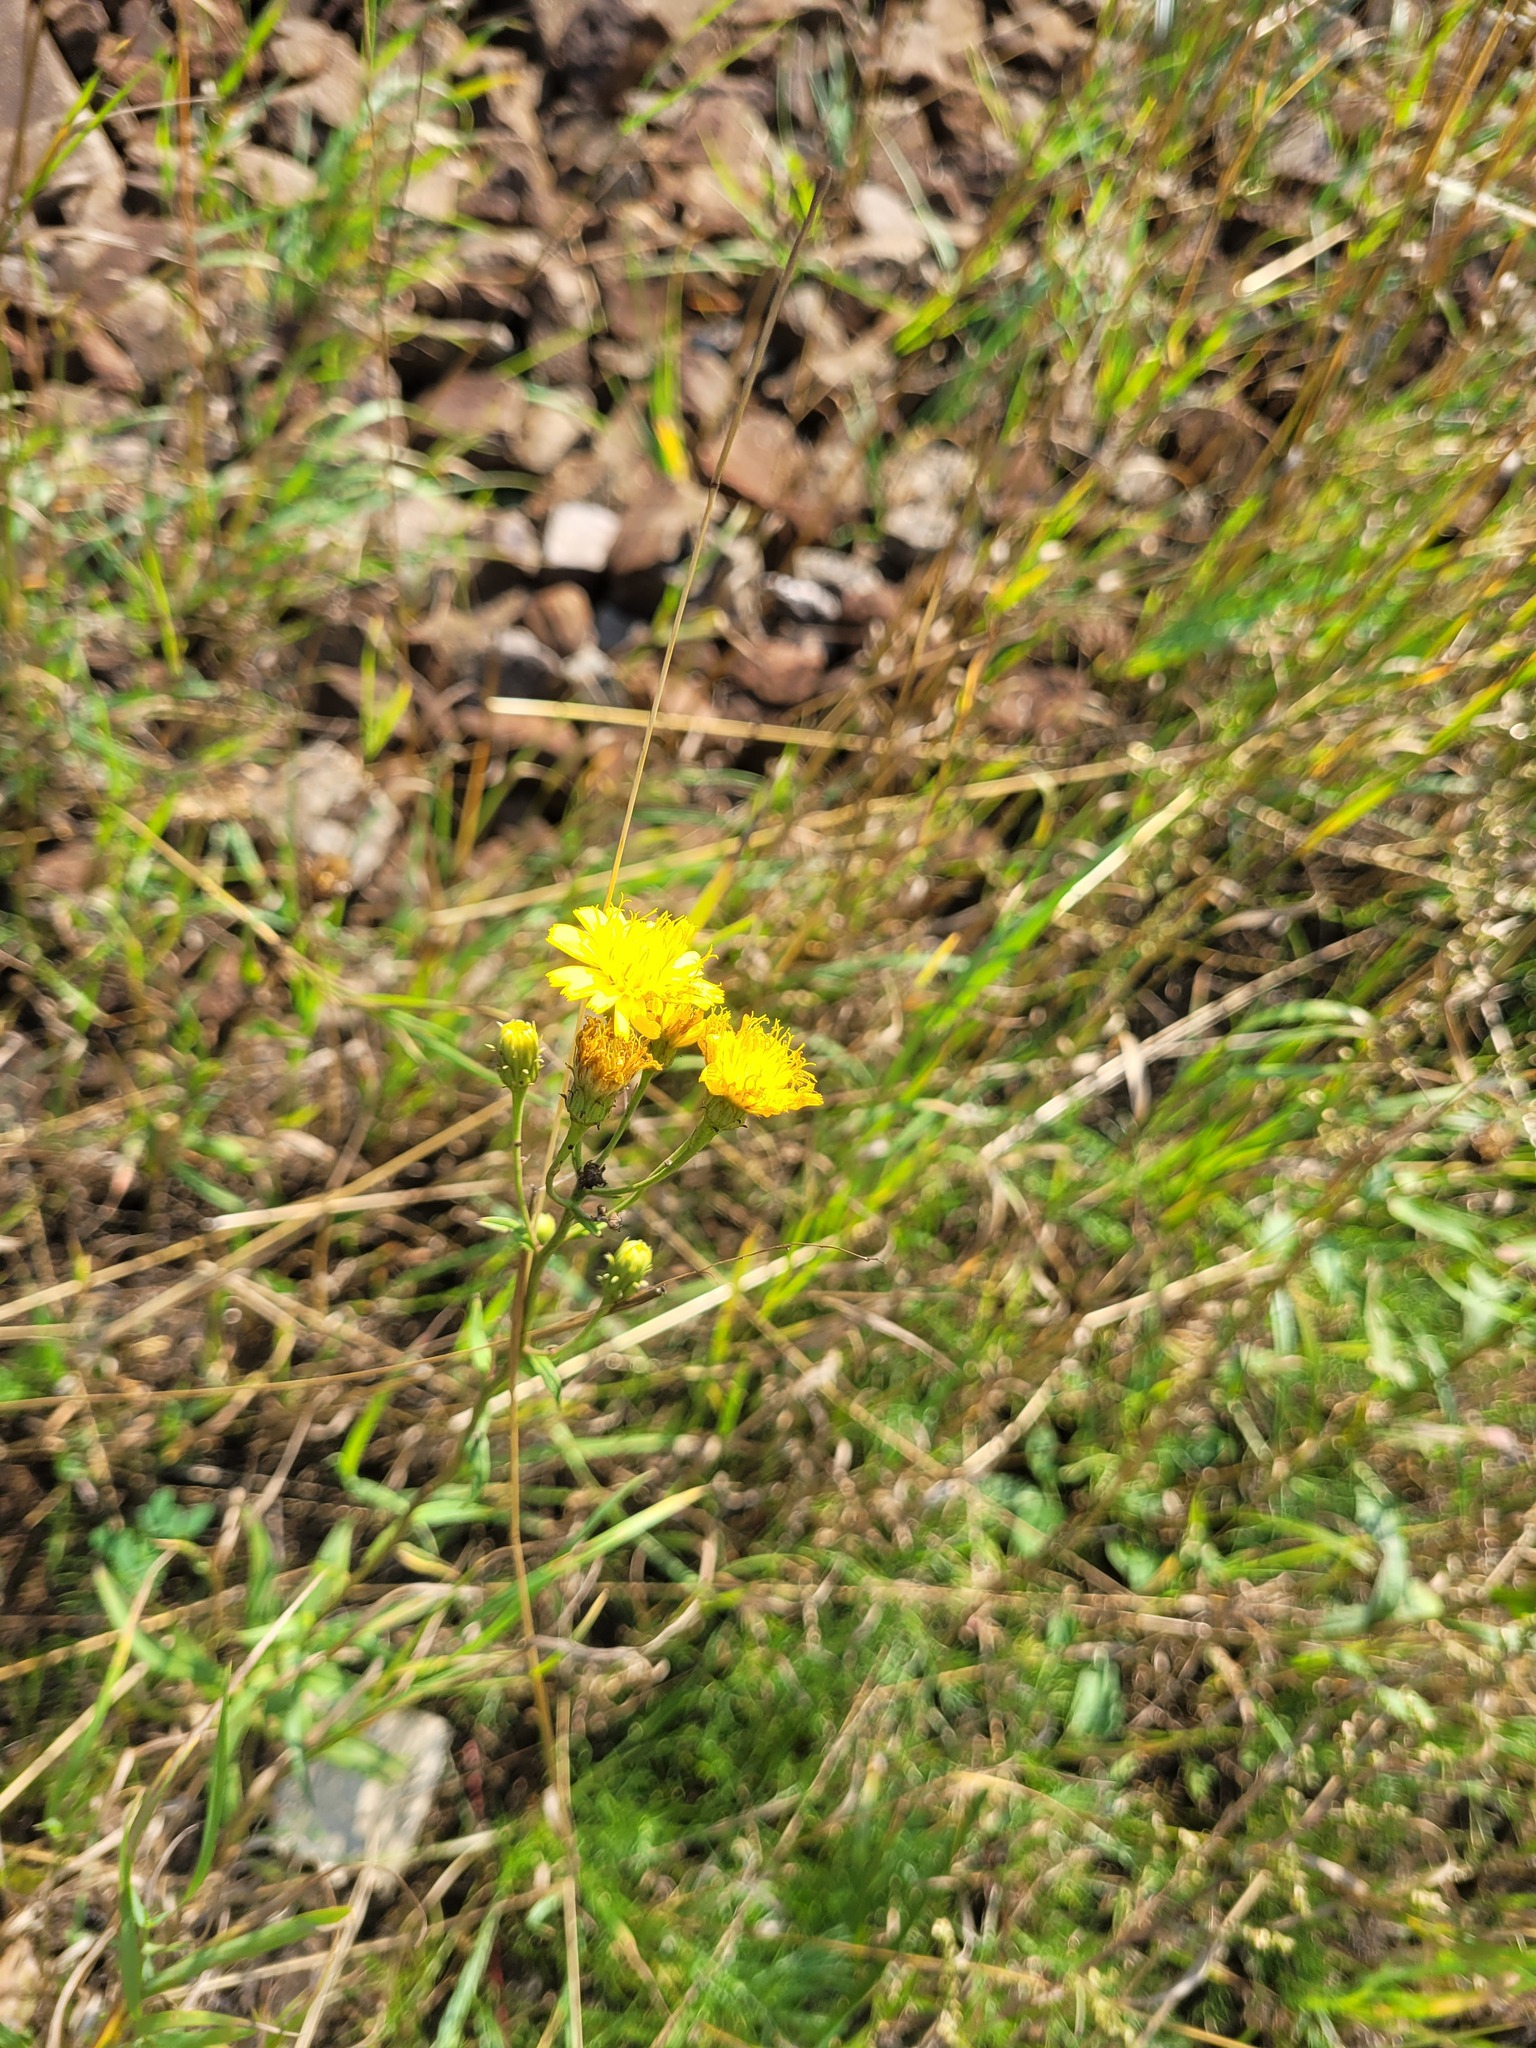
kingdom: Plantae
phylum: Tracheophyta
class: Magnoliopsida
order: Asterales
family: Asteraceae
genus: Hieracium
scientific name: Hieracium umbellatum
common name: Northern hawkweed
